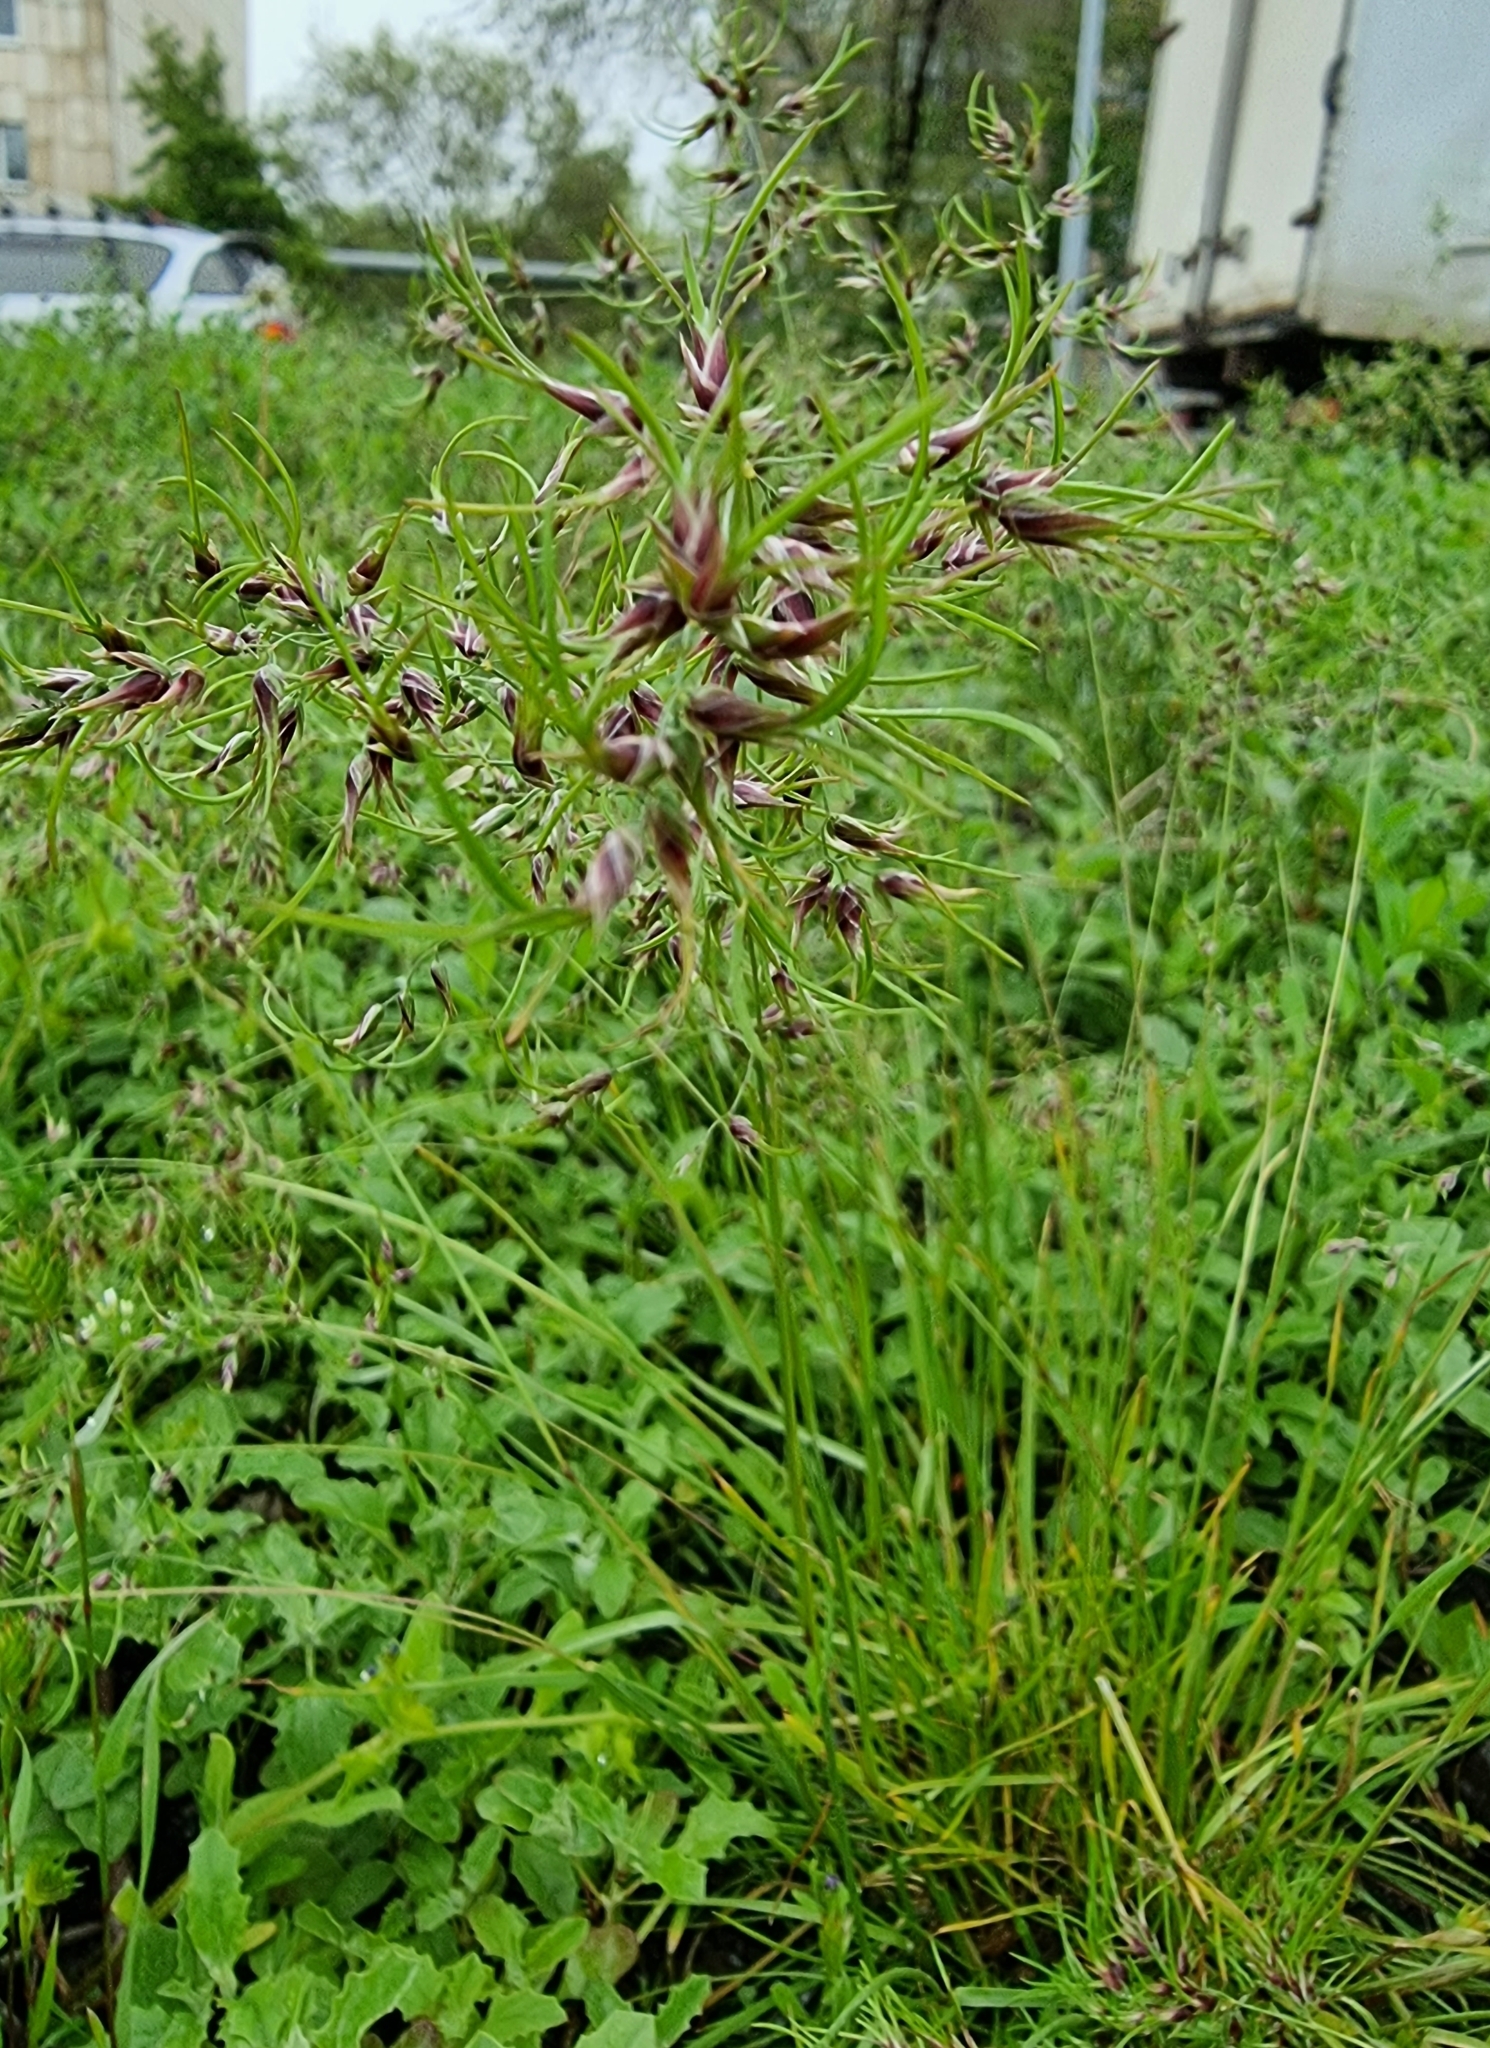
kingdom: Plantae
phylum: Tracheophyta
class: Liliopsida
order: Poales
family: Poaceae
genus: Poa
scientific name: Poa bulbosa
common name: Bulbous bluegrass
